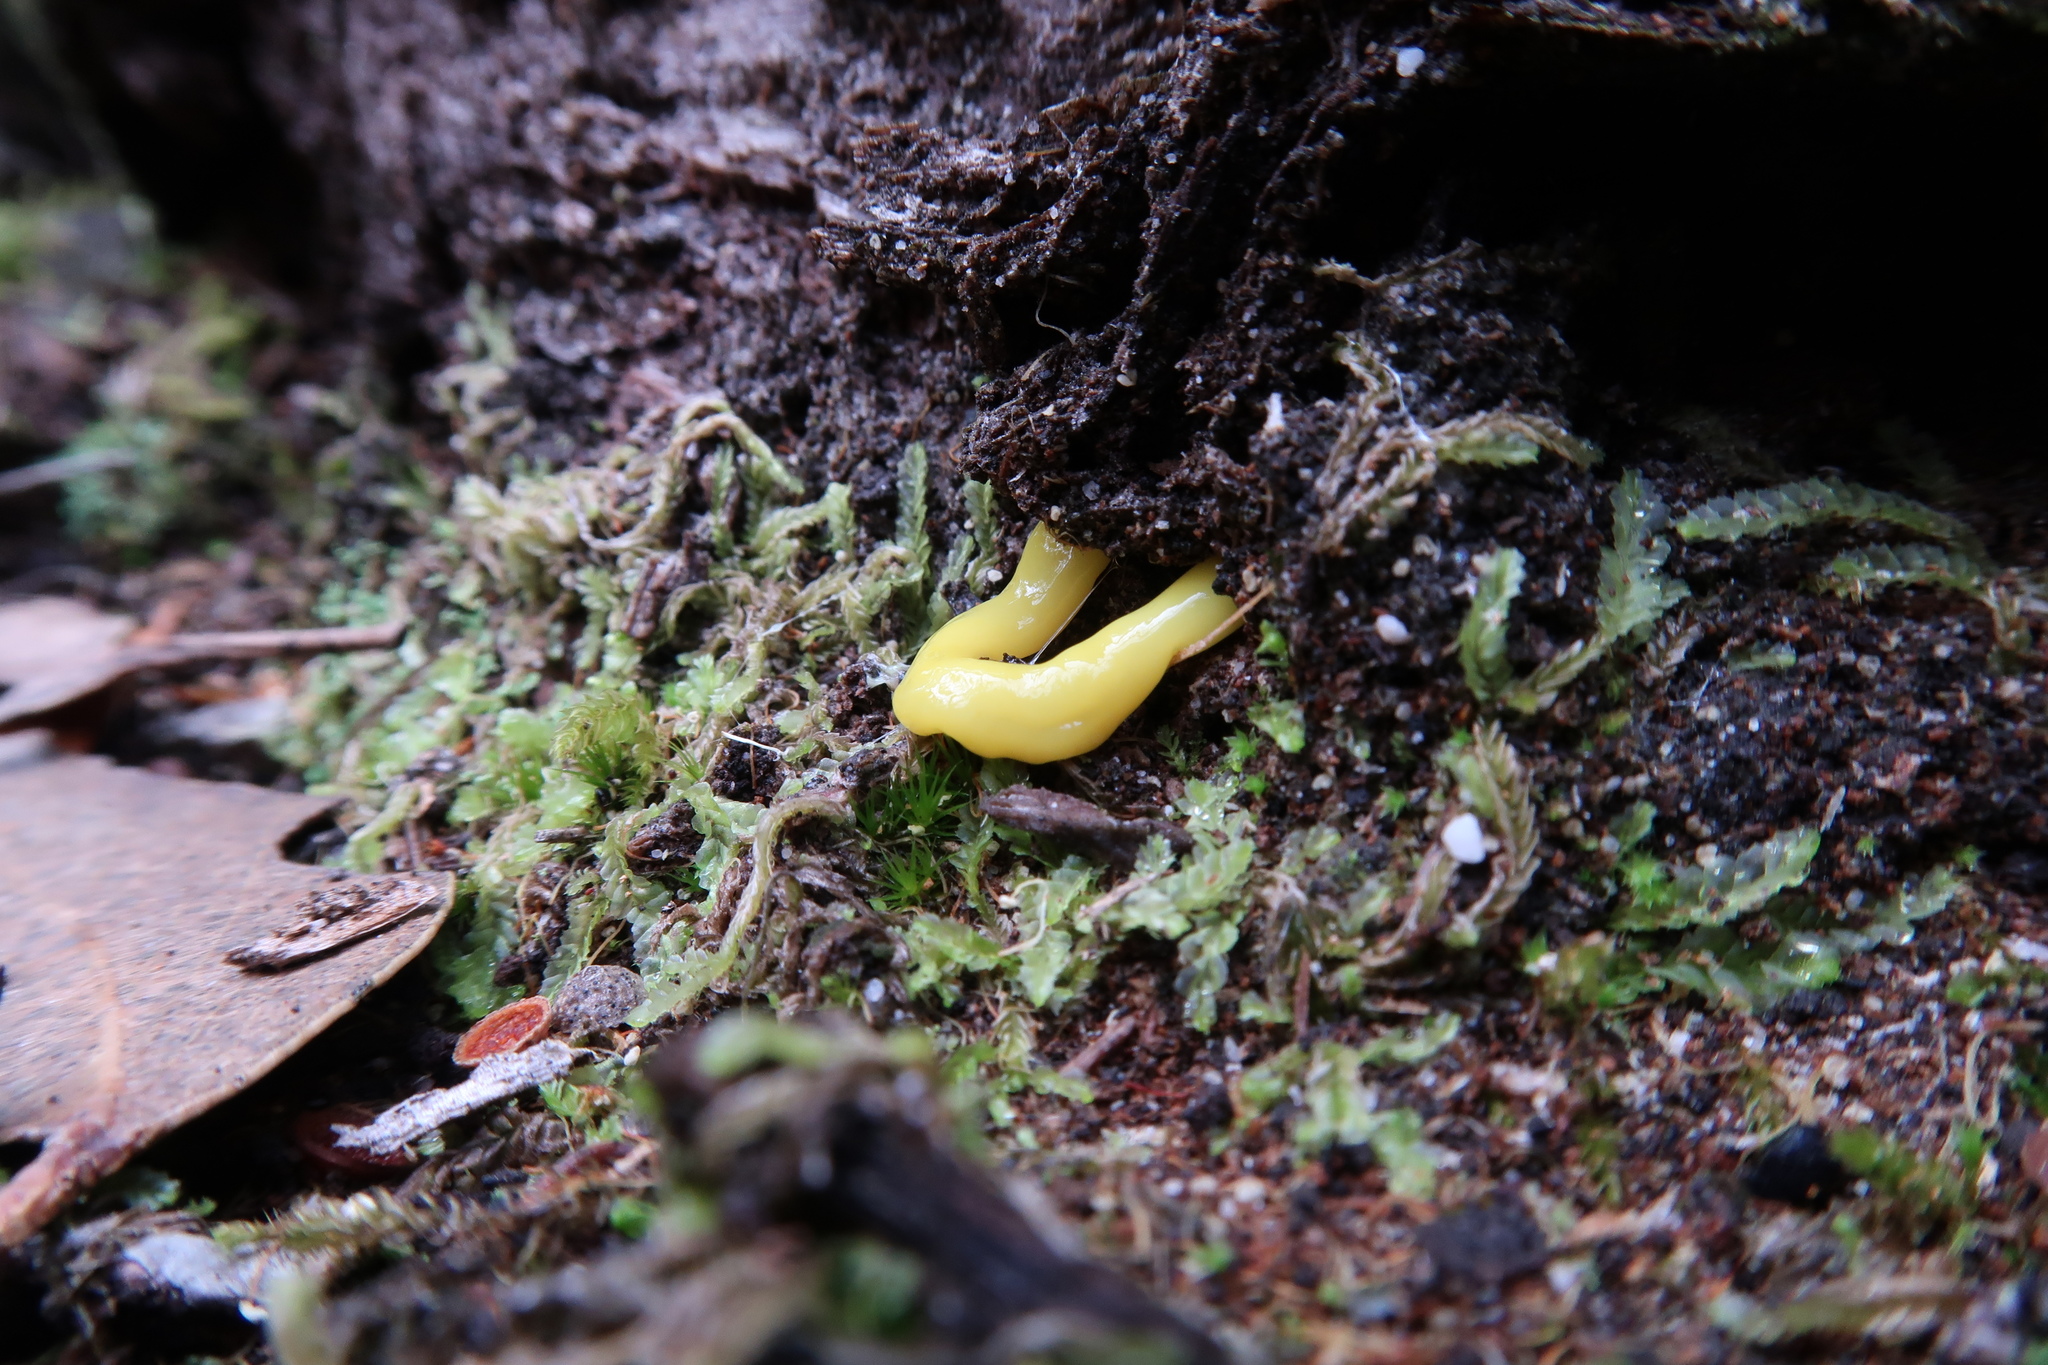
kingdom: Animalia
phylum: Platyhelminthes
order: Tricladida
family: Geoplanidae
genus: Fletchamia
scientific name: Fletchamia sugdeni
